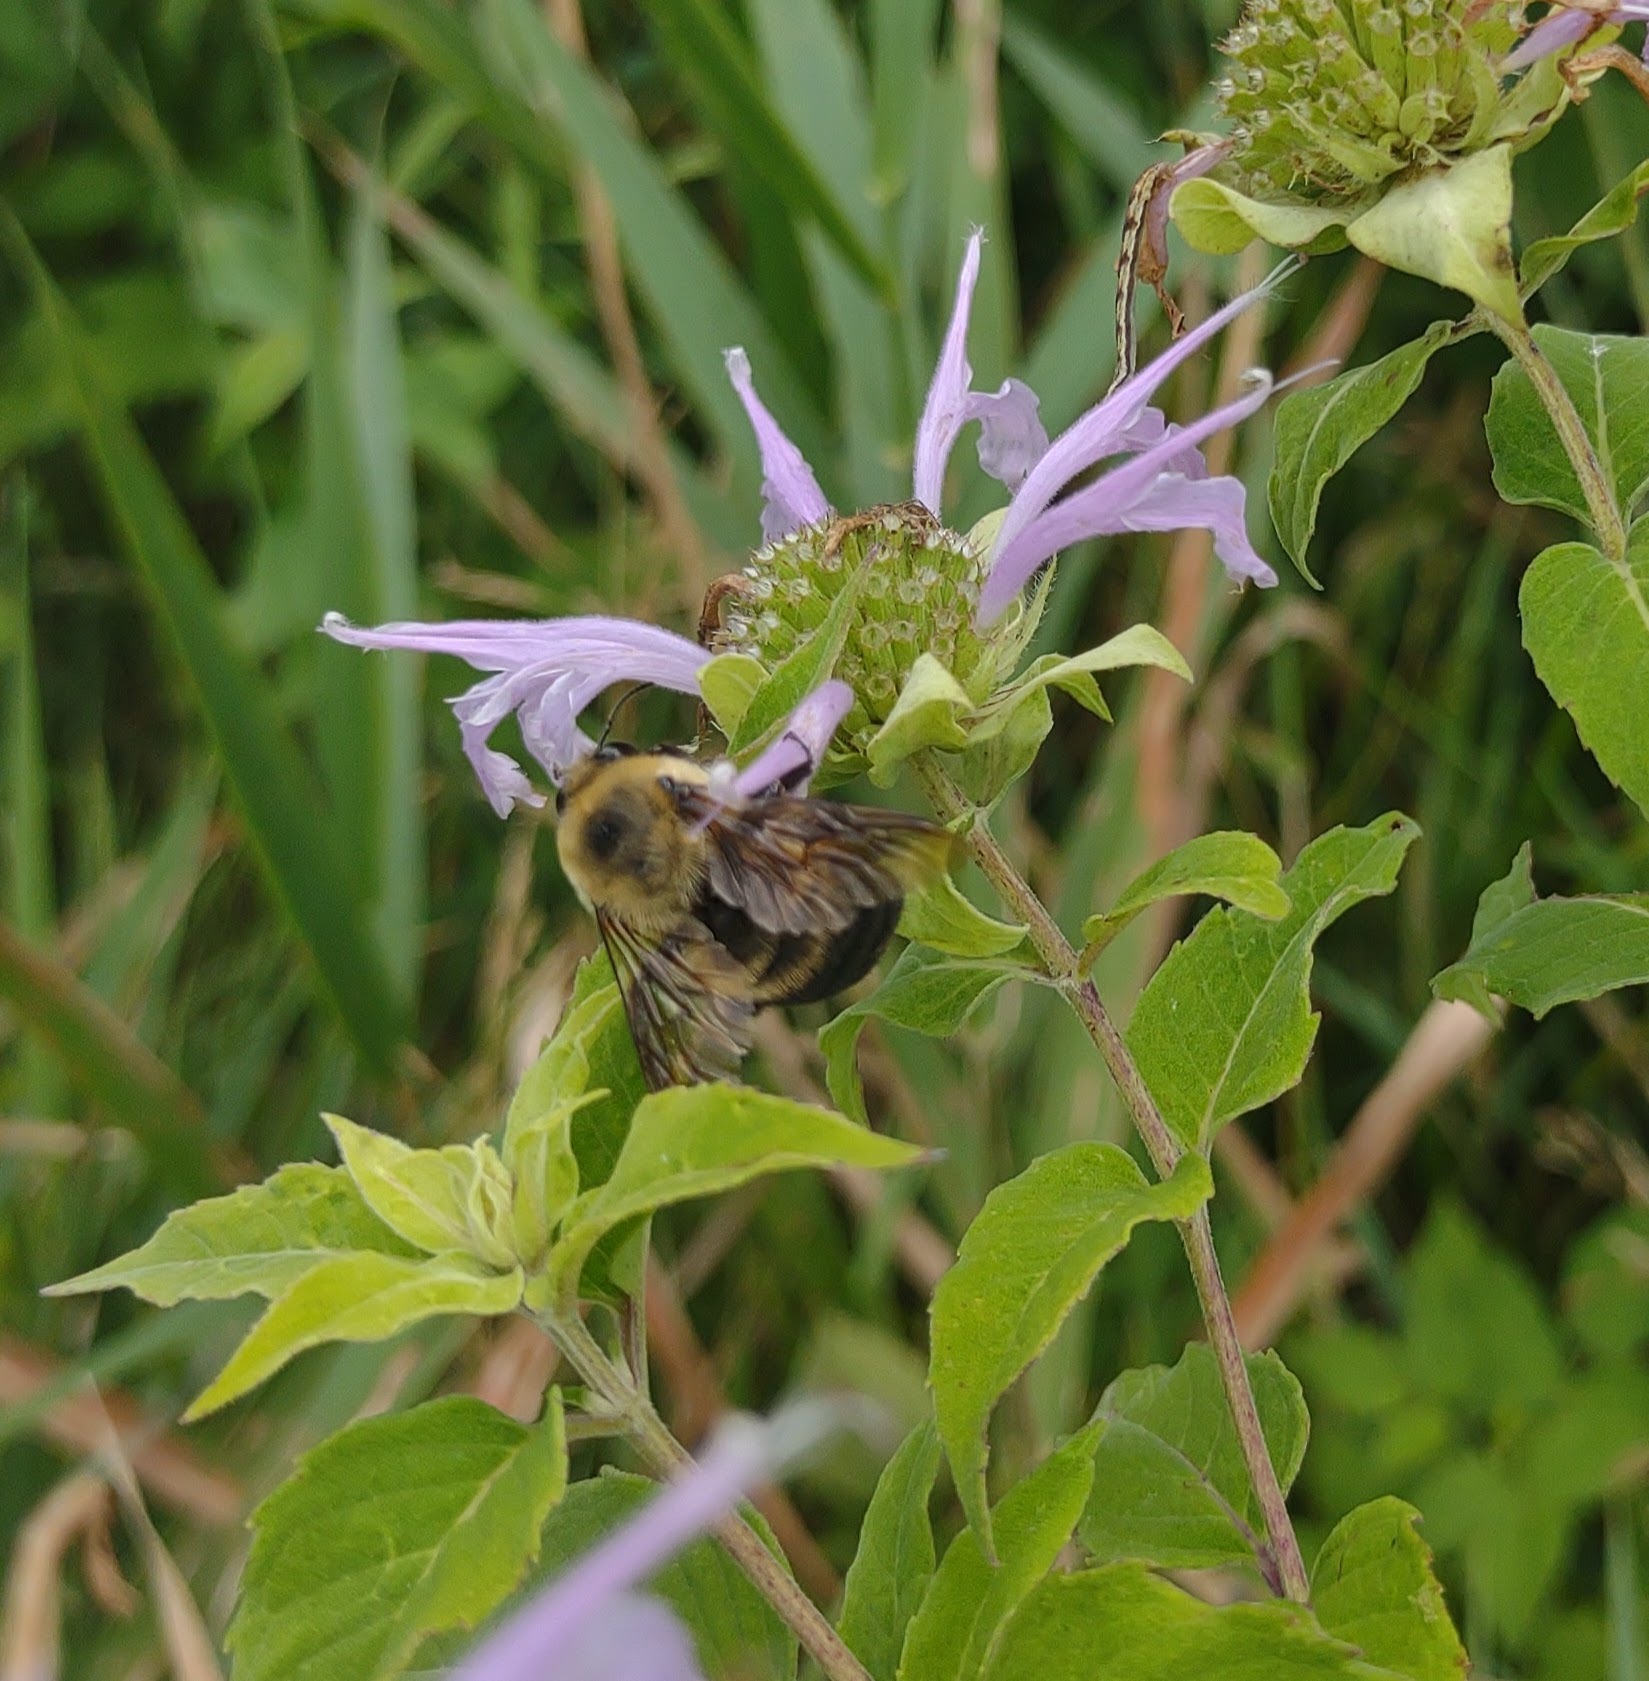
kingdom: Animalia
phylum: Arthropoda
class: Insecta
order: Hymenoptera
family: Apidae
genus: Bombus
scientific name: Bombus griseocollis
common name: Brown-belted bumble bee
